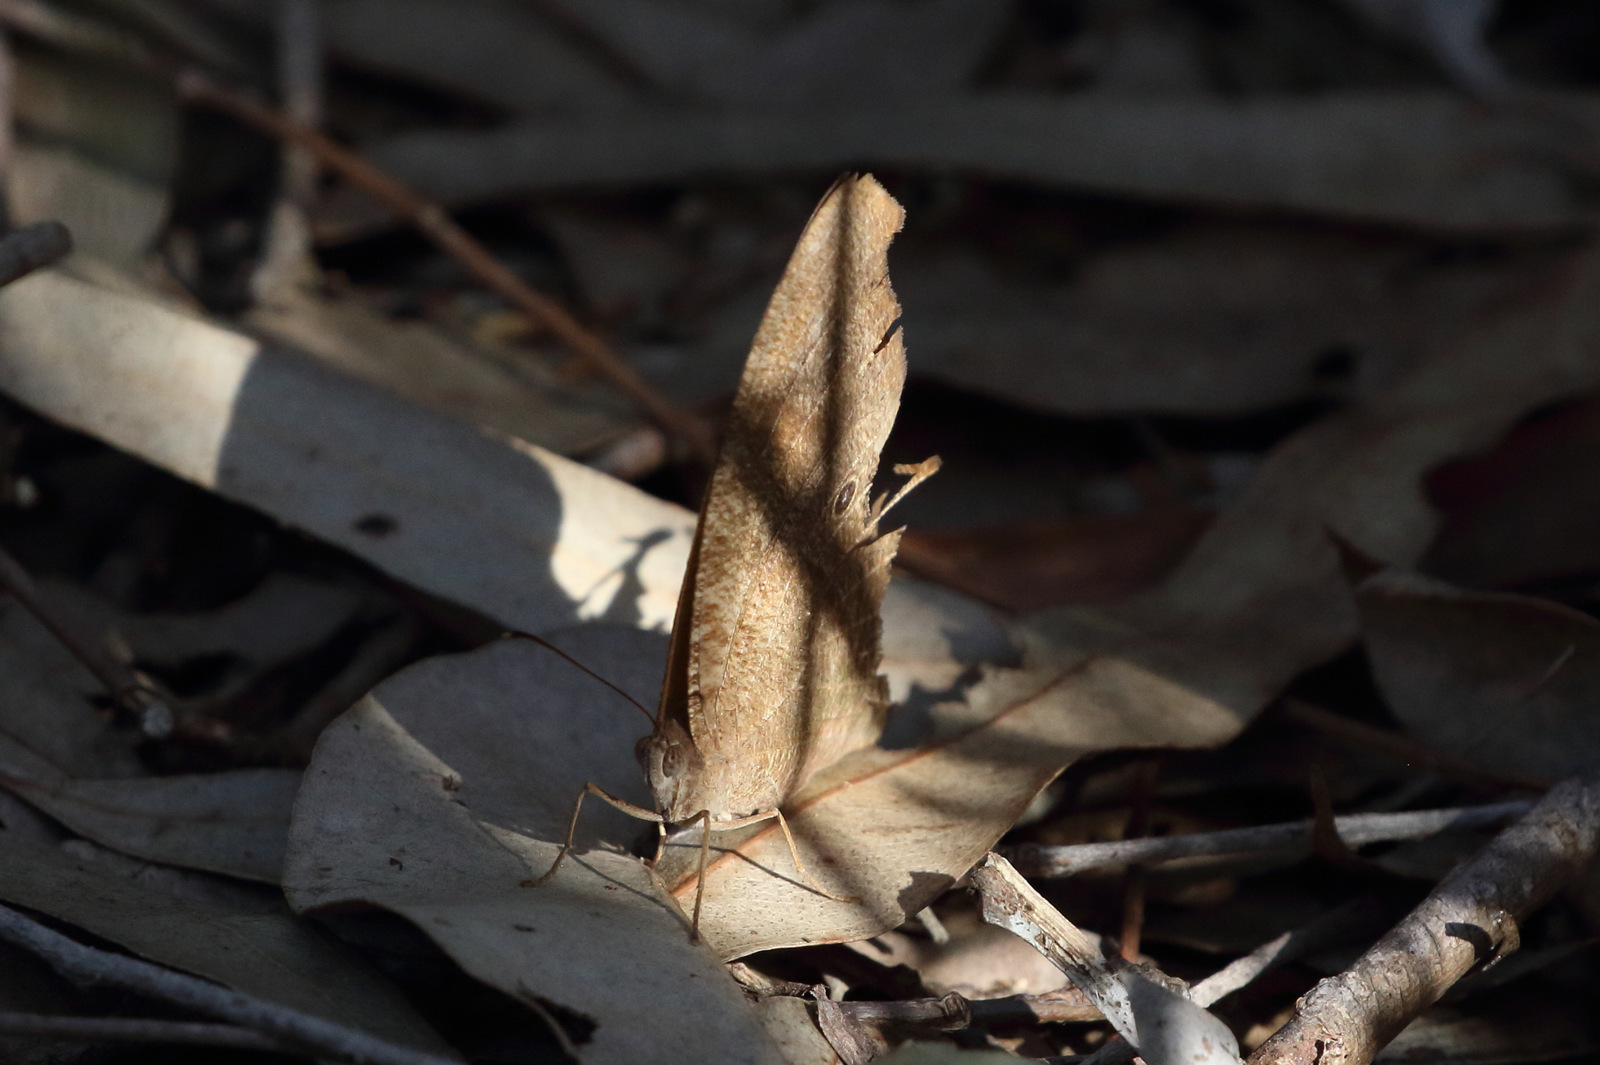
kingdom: Animalia
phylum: Arthropoda
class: Insecta
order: Lepidoptera
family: Nymphalidae
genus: Melanitis
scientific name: Melanitis leda
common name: Twilight brown
